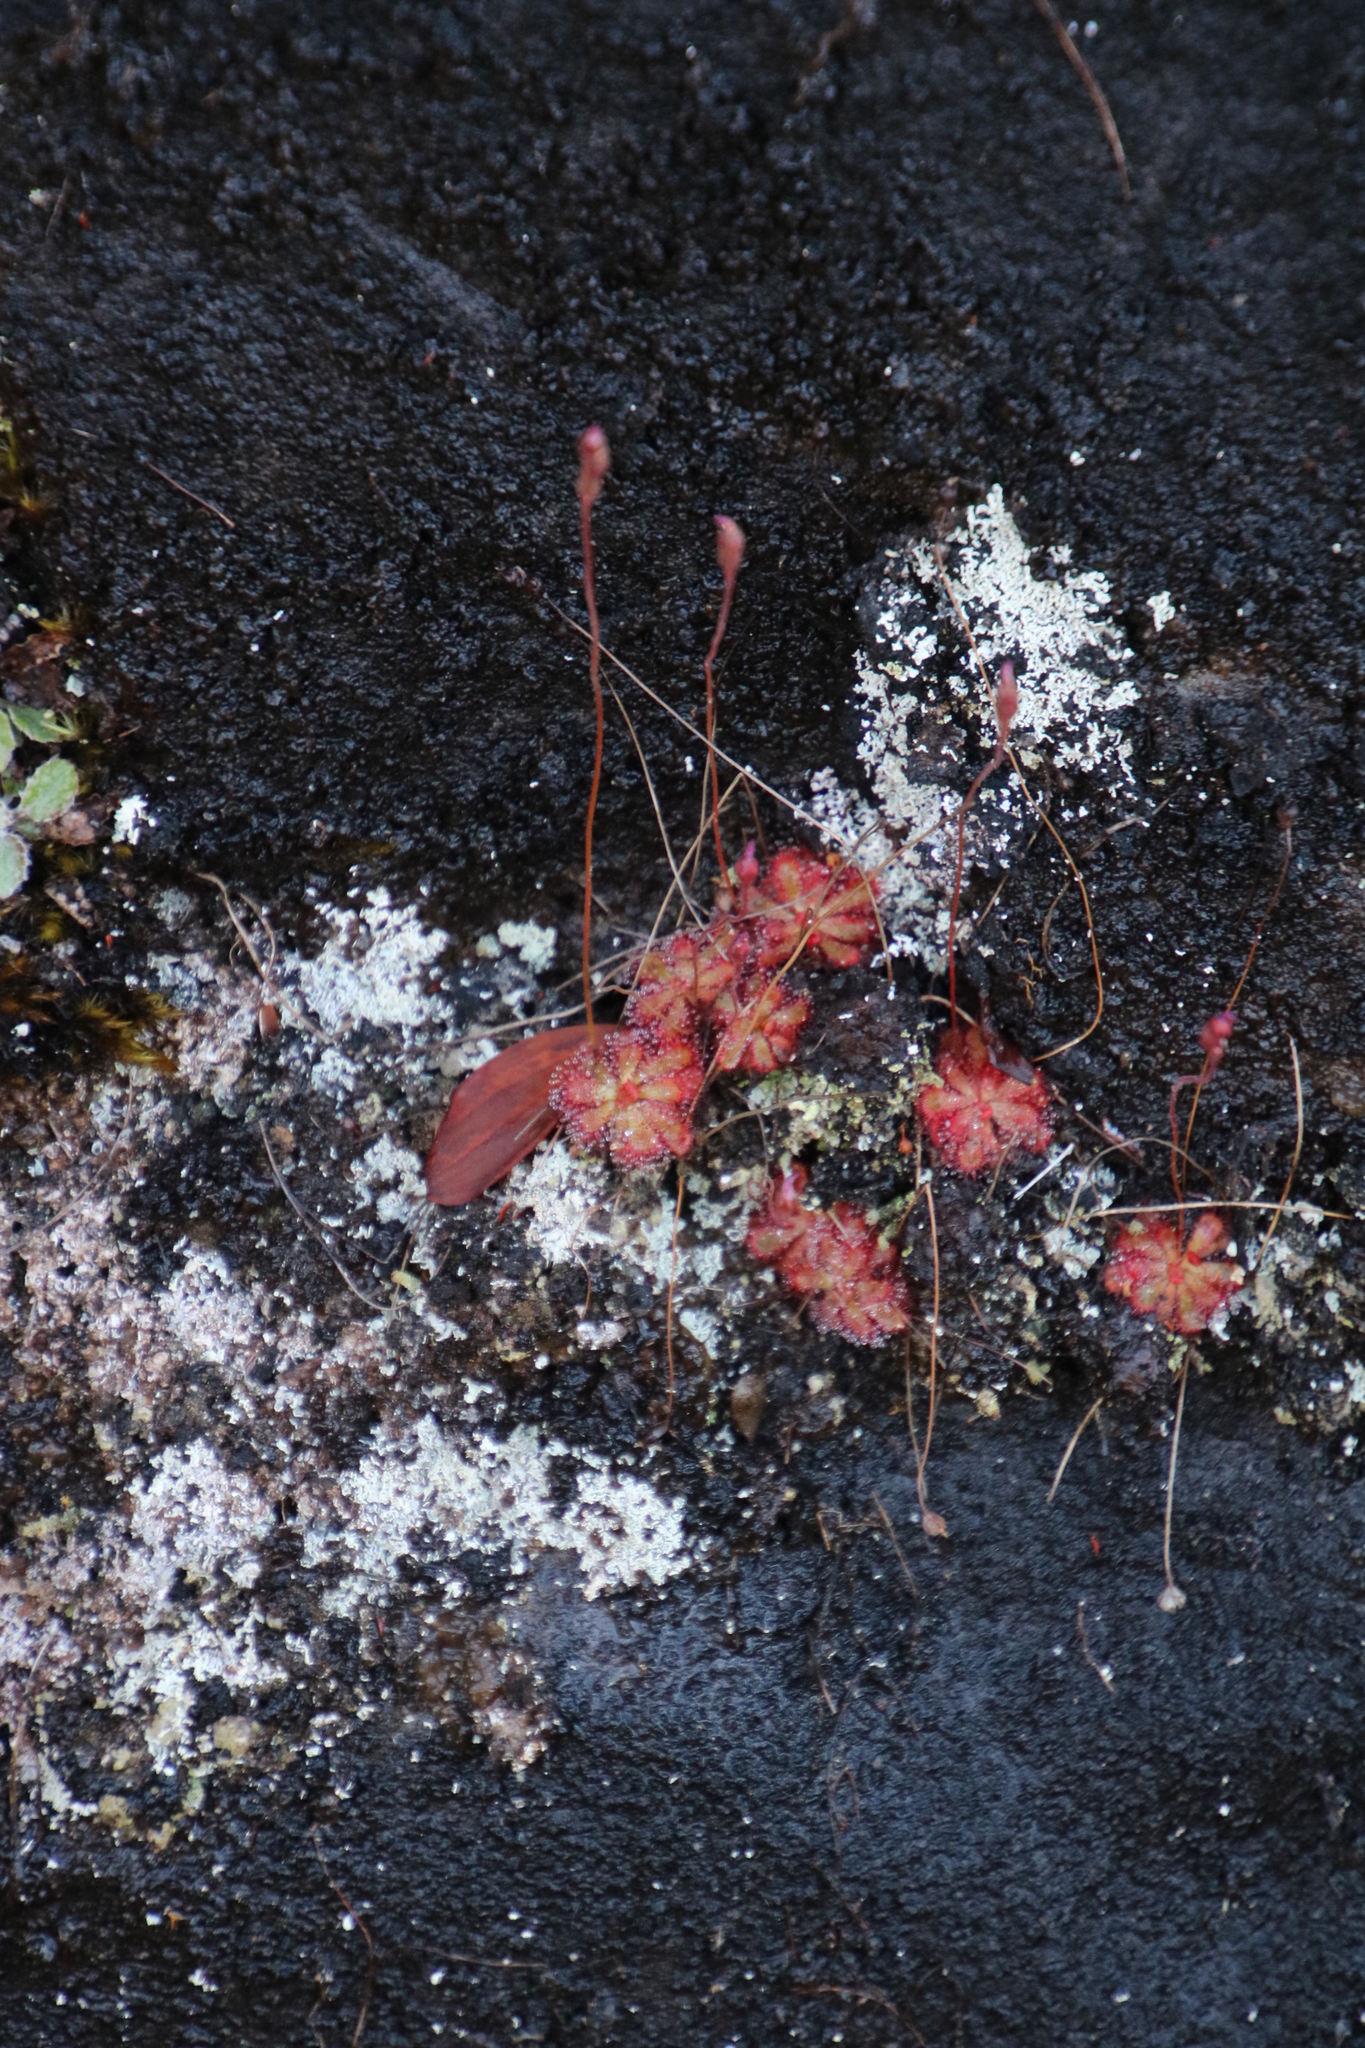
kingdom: Plantae
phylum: Tracheophyta
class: Magnoliopsida
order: Caryophyllales
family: Droseraceae
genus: Drosera
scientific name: Drosera aliciae
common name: Alice sundew
